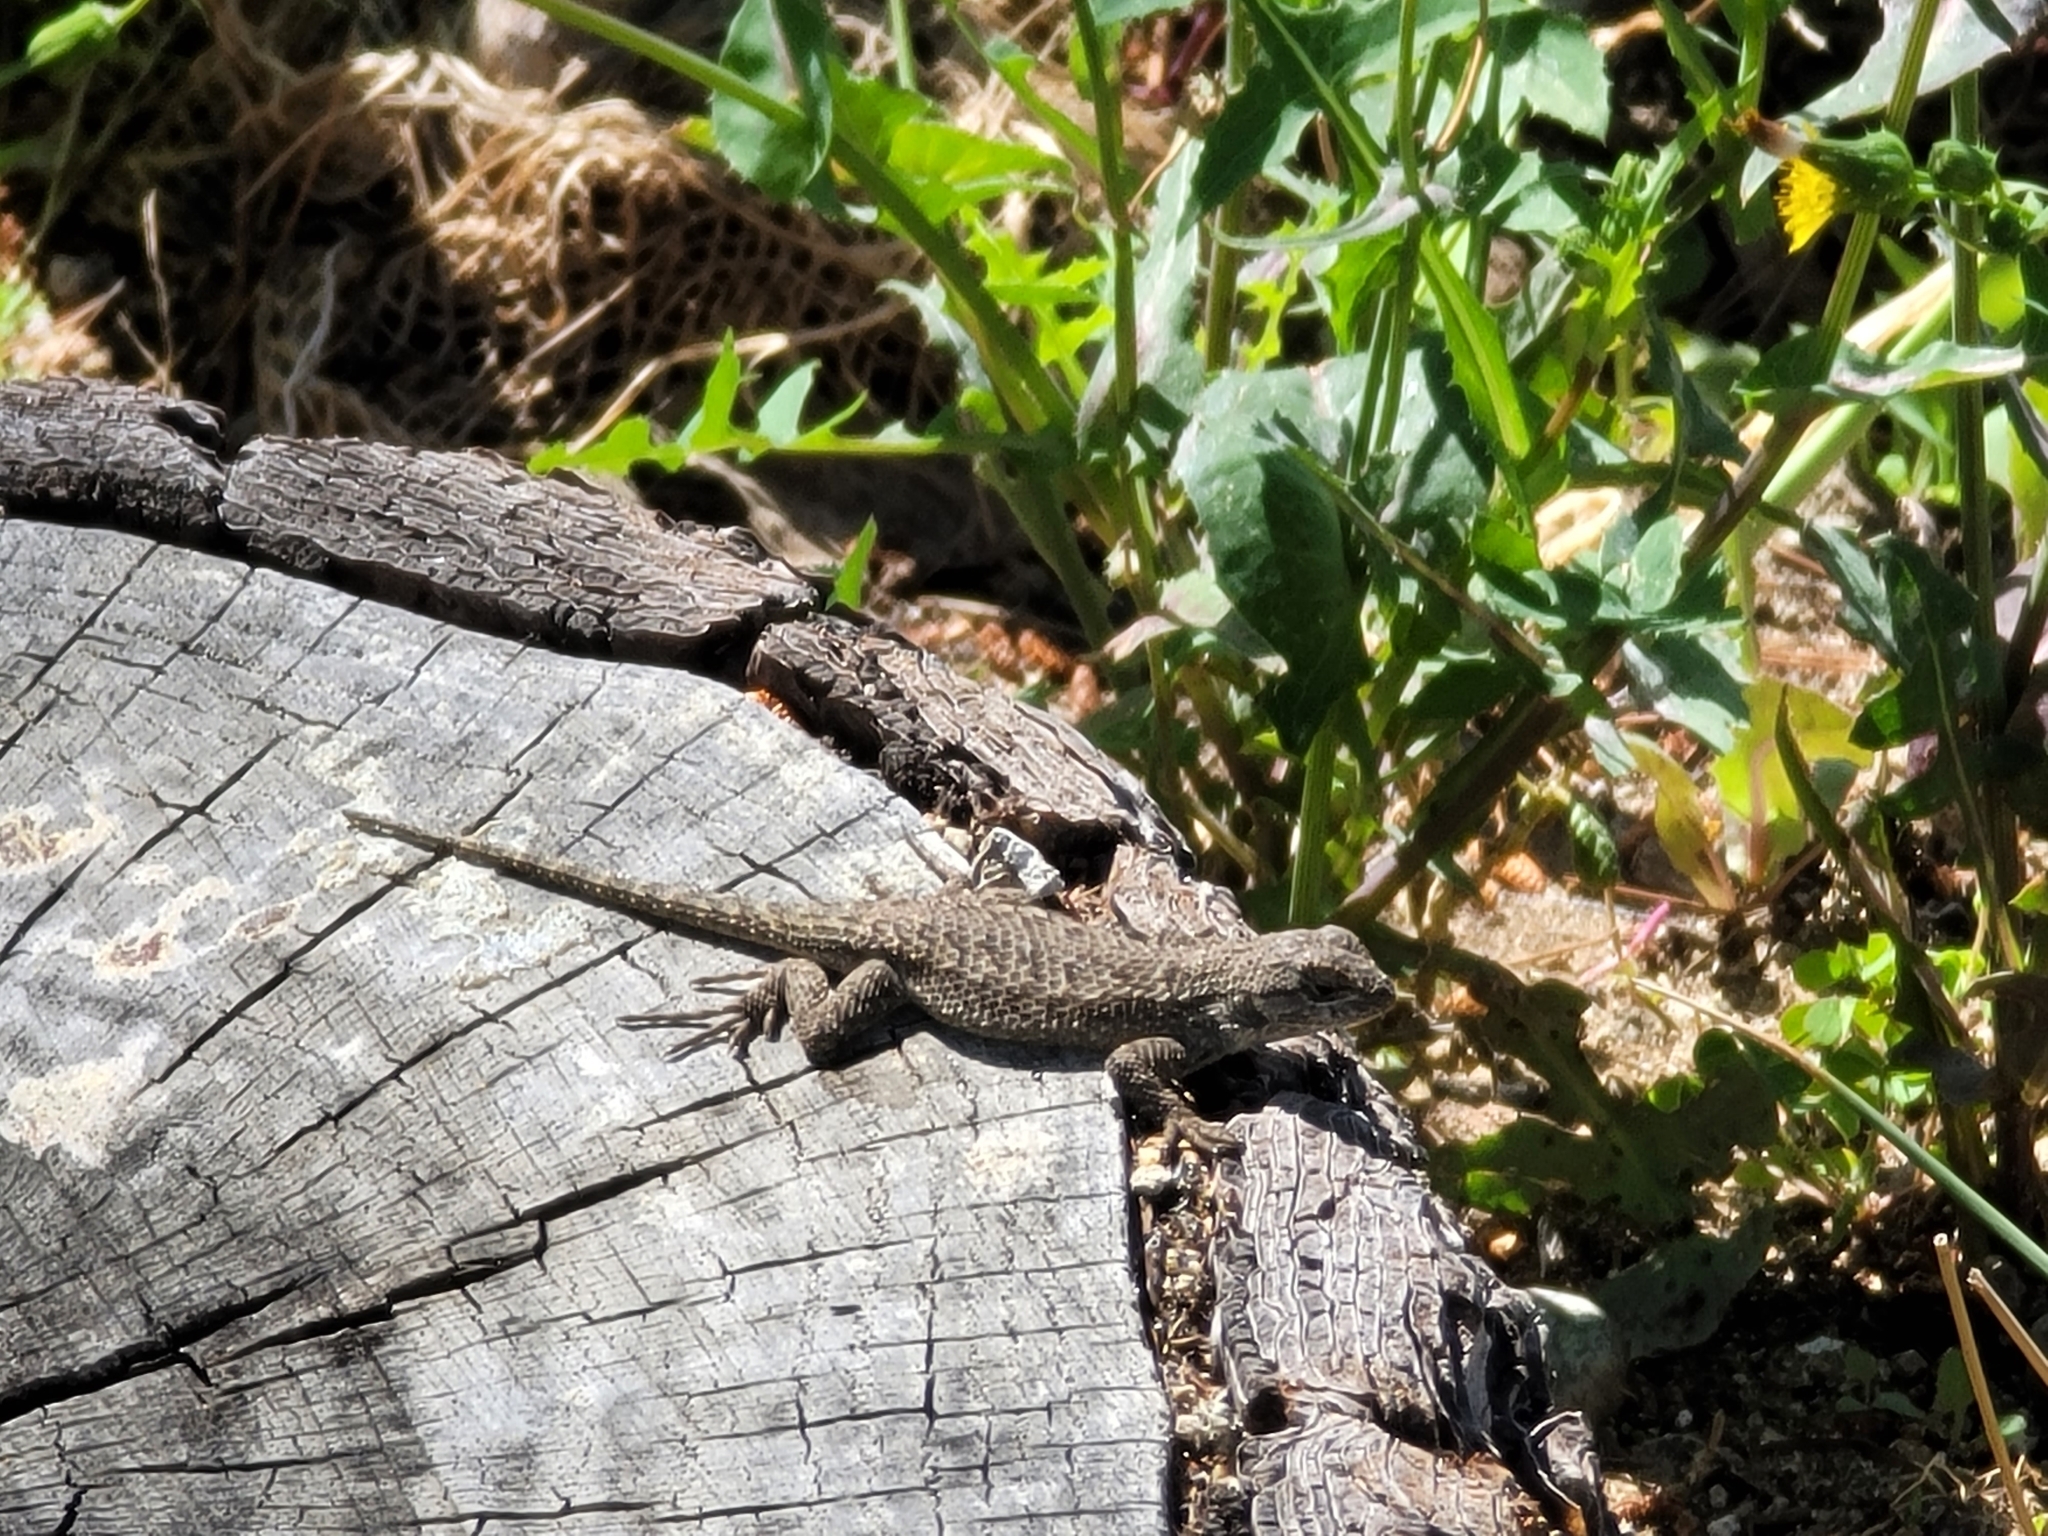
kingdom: Animalia
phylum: Chordata
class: Squamata
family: Phrynosomatidae
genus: Sceloporus
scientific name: Sceloporus occidentalis
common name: Western fence lizard
